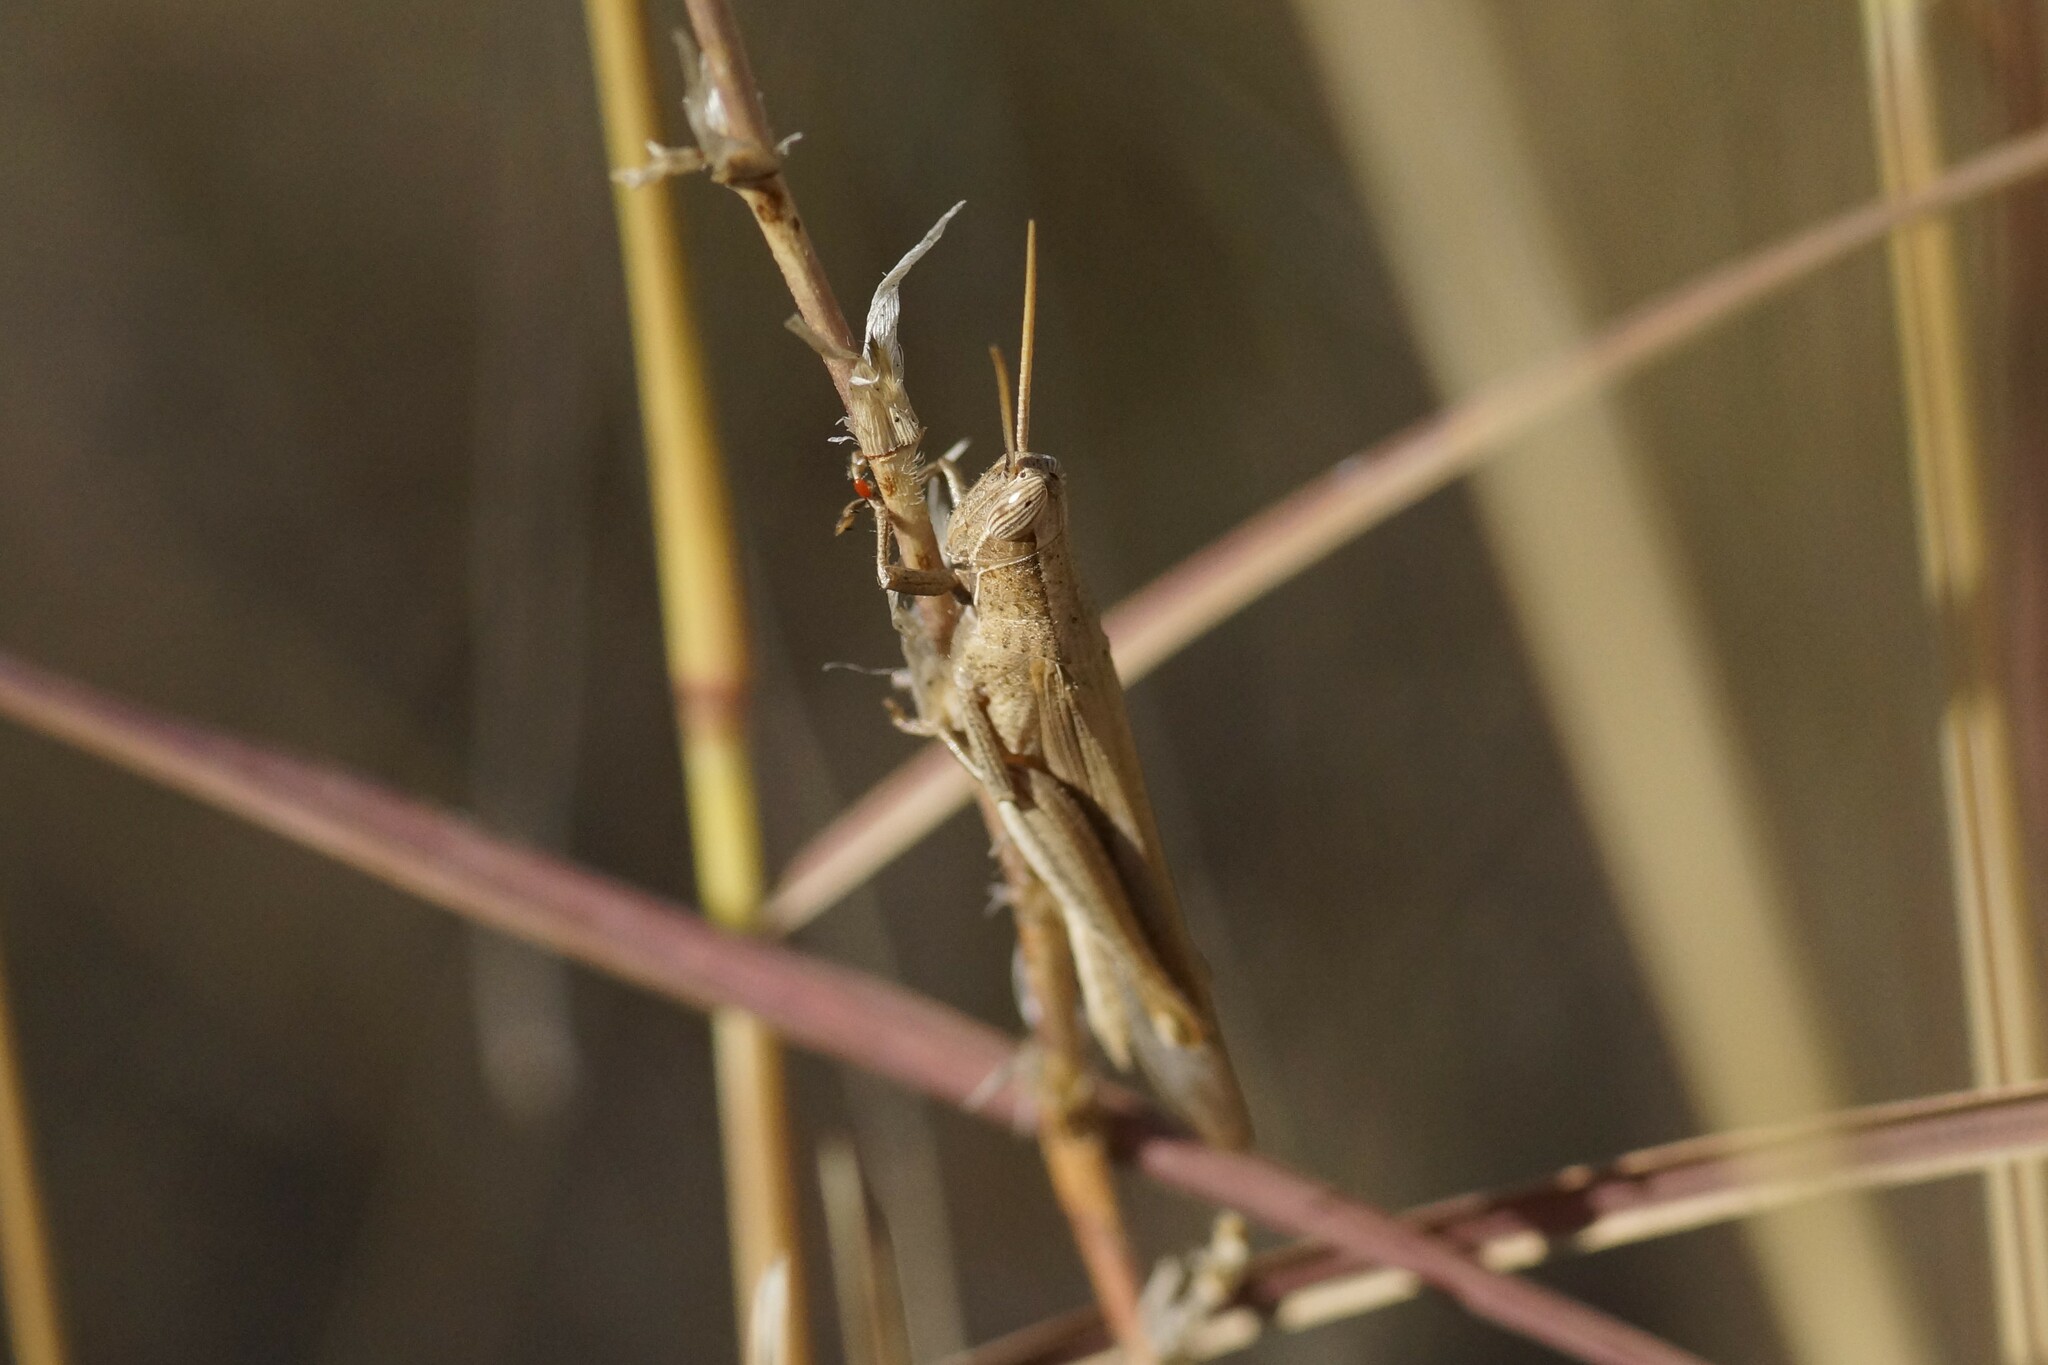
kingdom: Animalia
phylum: Arthropoda
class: Insecta
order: Orthoptera
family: Acrididae
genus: Stenocatantops
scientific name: Stenocatantops vitripennis
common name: Light-brown sharptail
